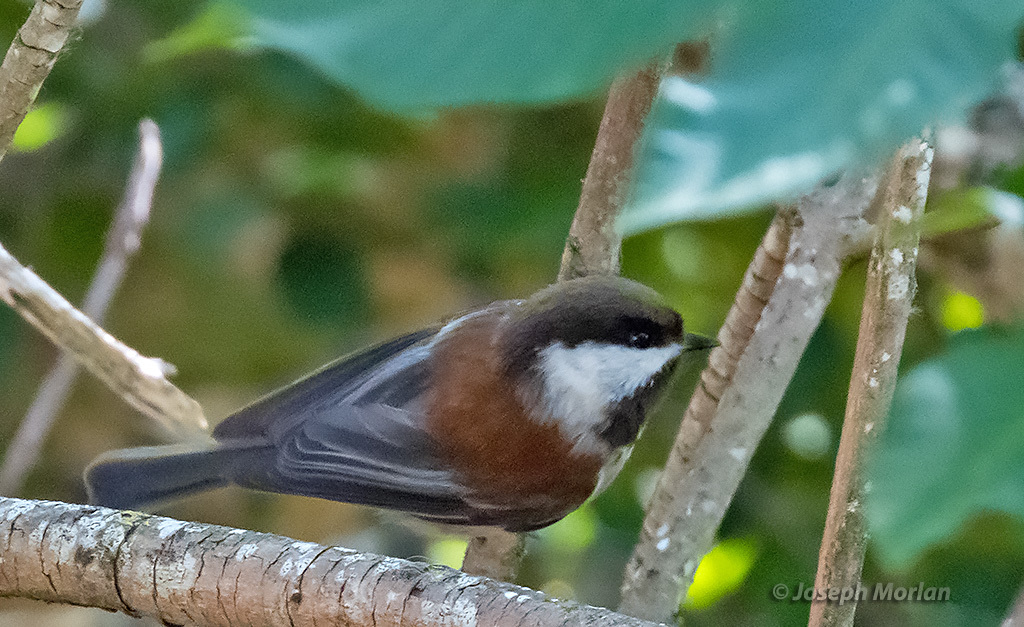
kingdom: Animalia
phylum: Chordata
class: Aves
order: Passeriformes
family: Paridae
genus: Poecile
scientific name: Poecile rufescens
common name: Chestnut-backed chickadee
